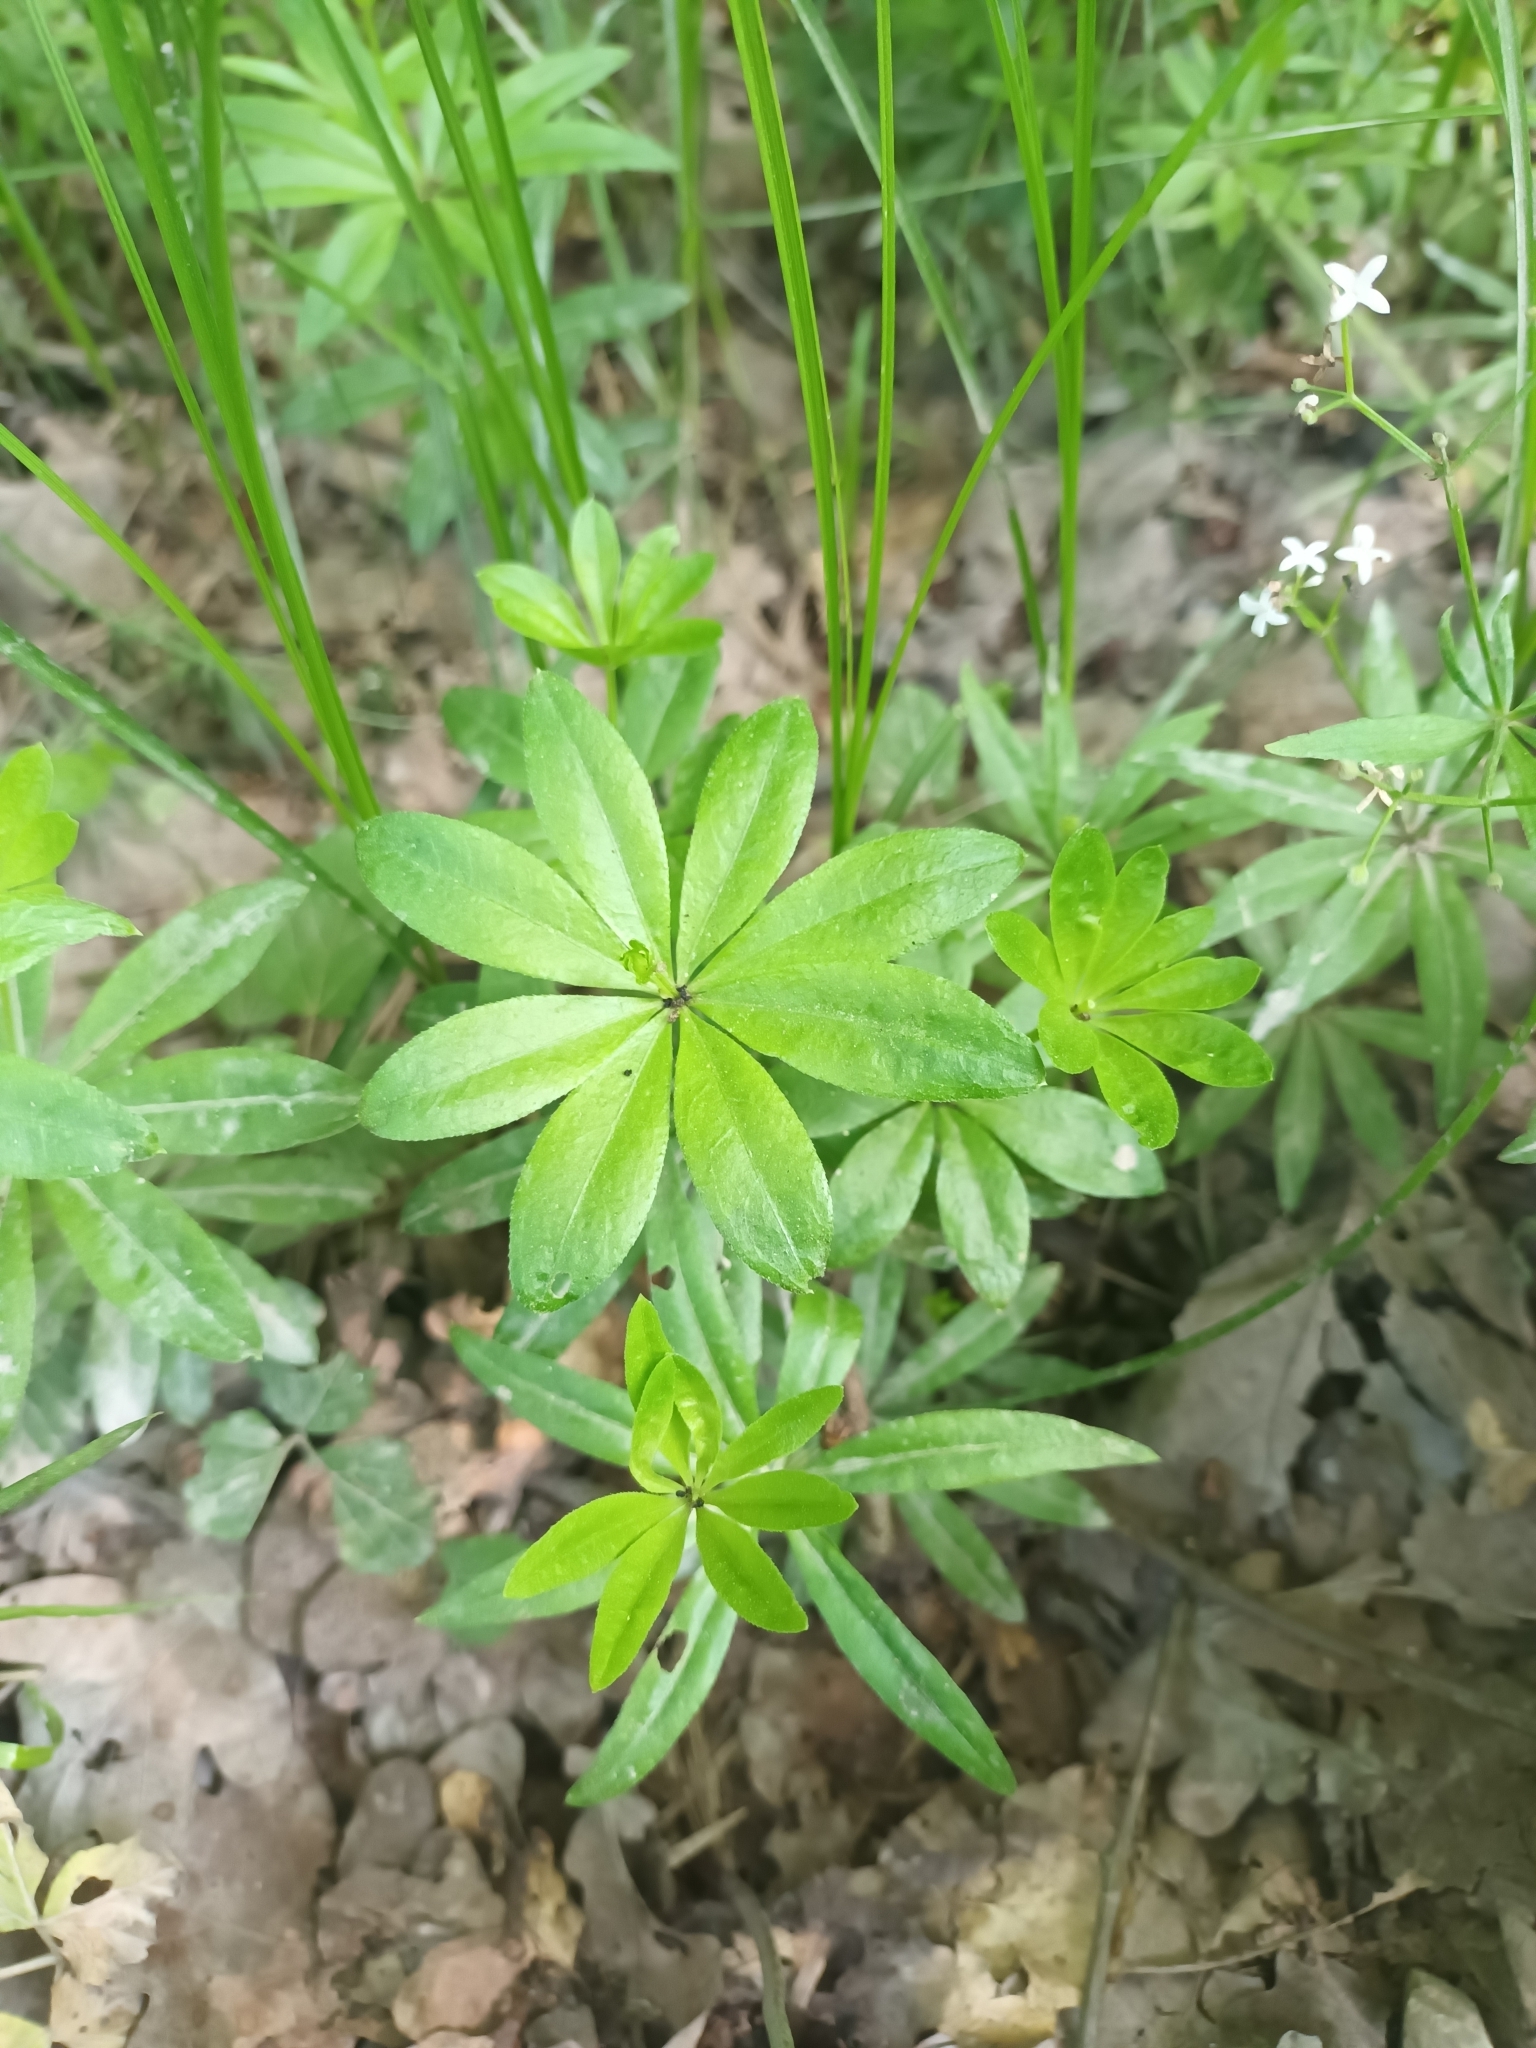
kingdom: Plantae
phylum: Tracheophyta
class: Magnoliopsida
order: Gentianales
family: Rubiaceae
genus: Galium
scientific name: Galium odoratum
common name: Sweet woodruff
